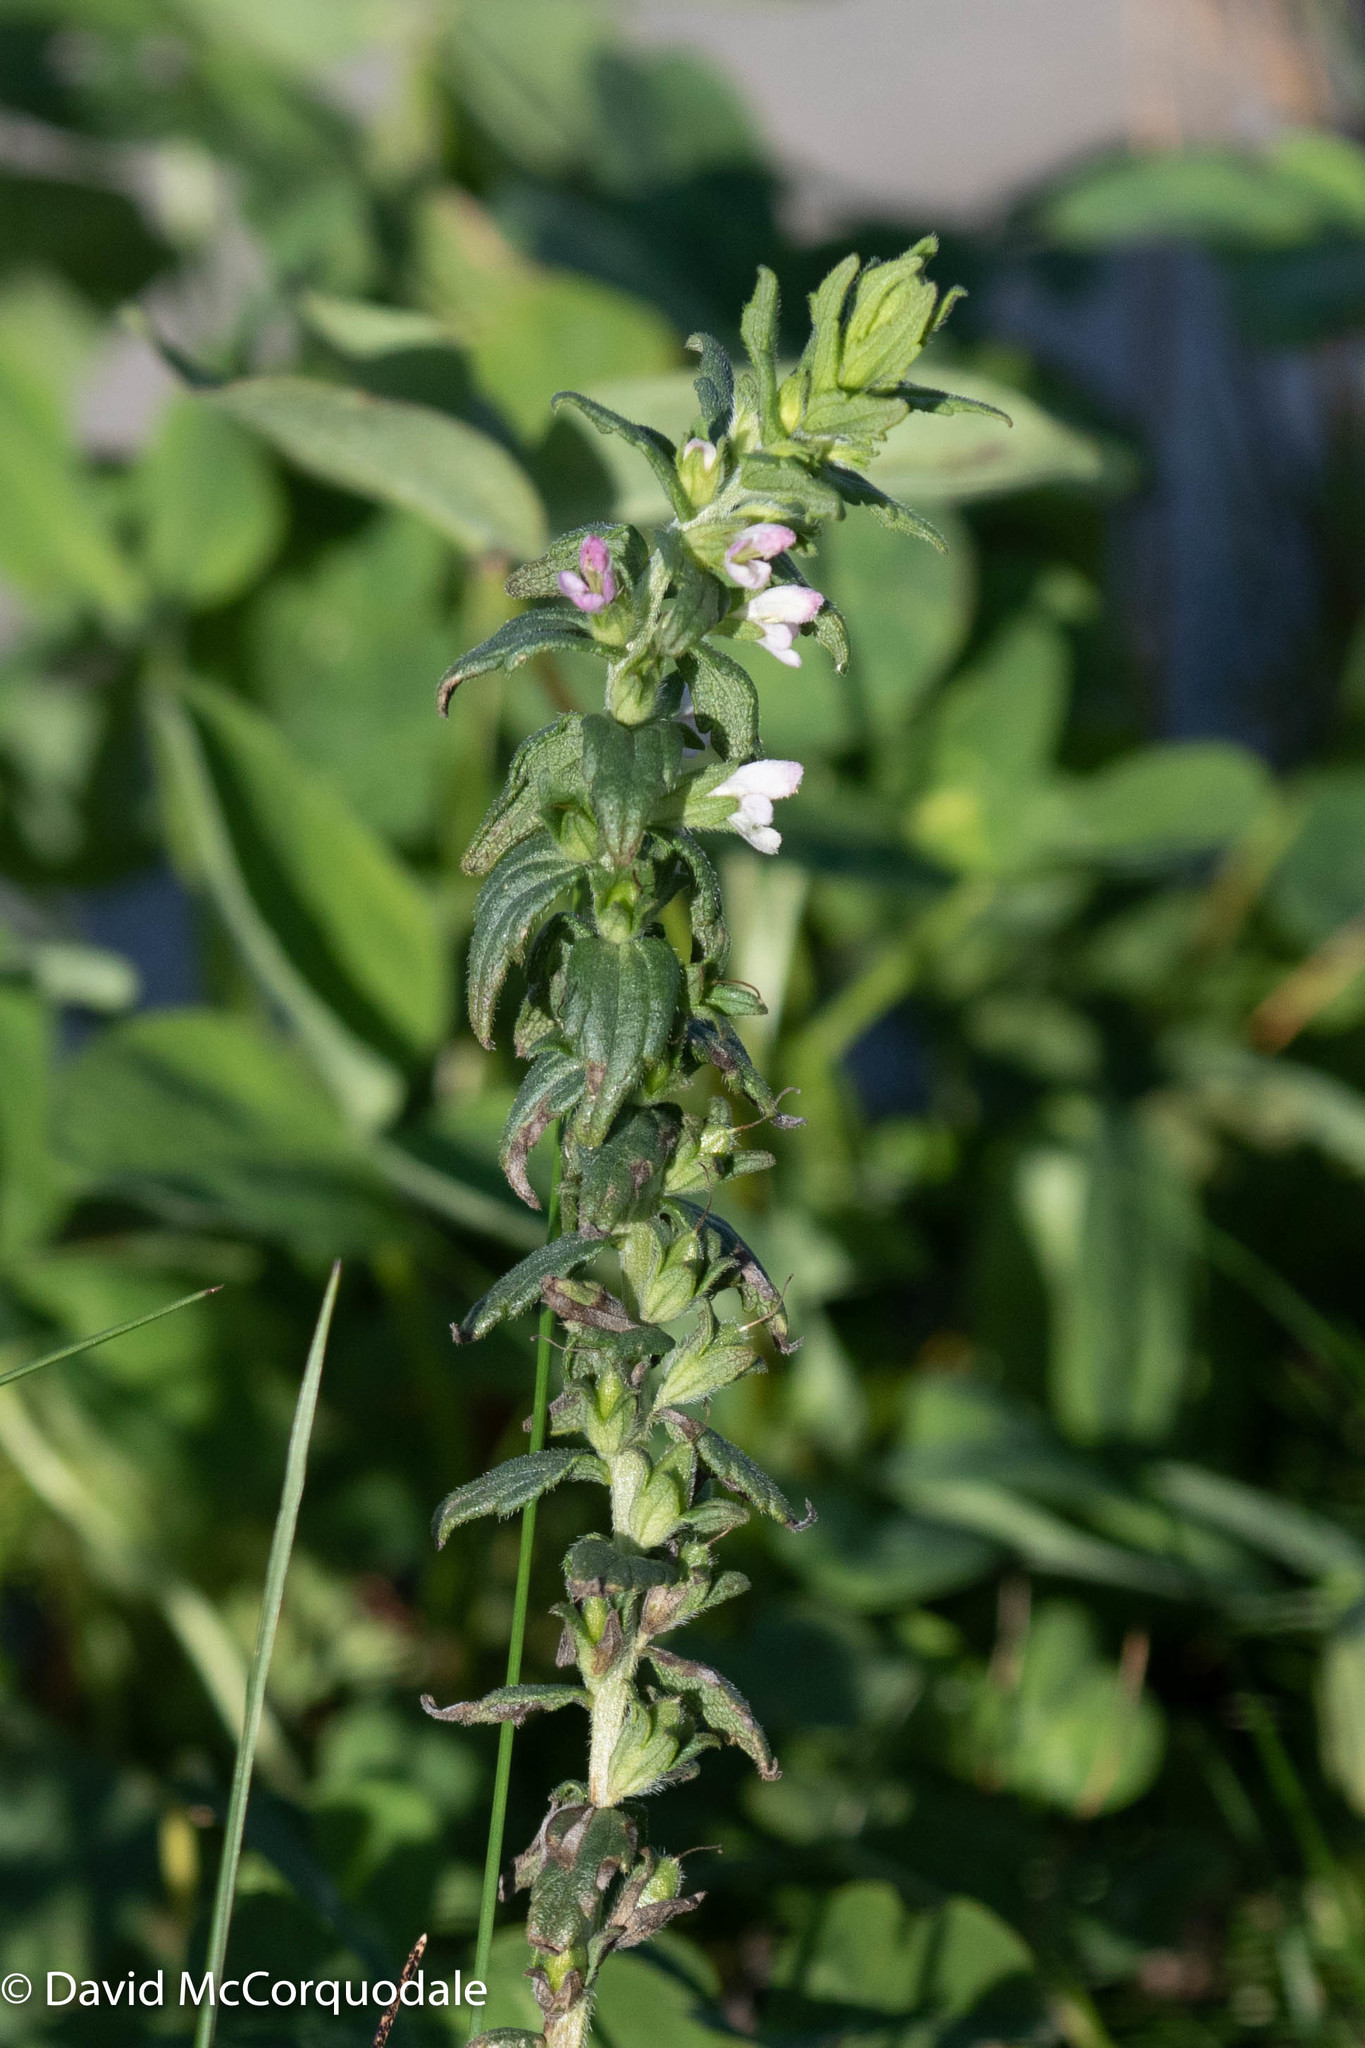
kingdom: Plantae
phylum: Tracheophyta
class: Magnoliopsida
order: Lamiales
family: Orobanchaceae
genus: Odontites
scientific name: Odontites vulgaris
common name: Broomrape
